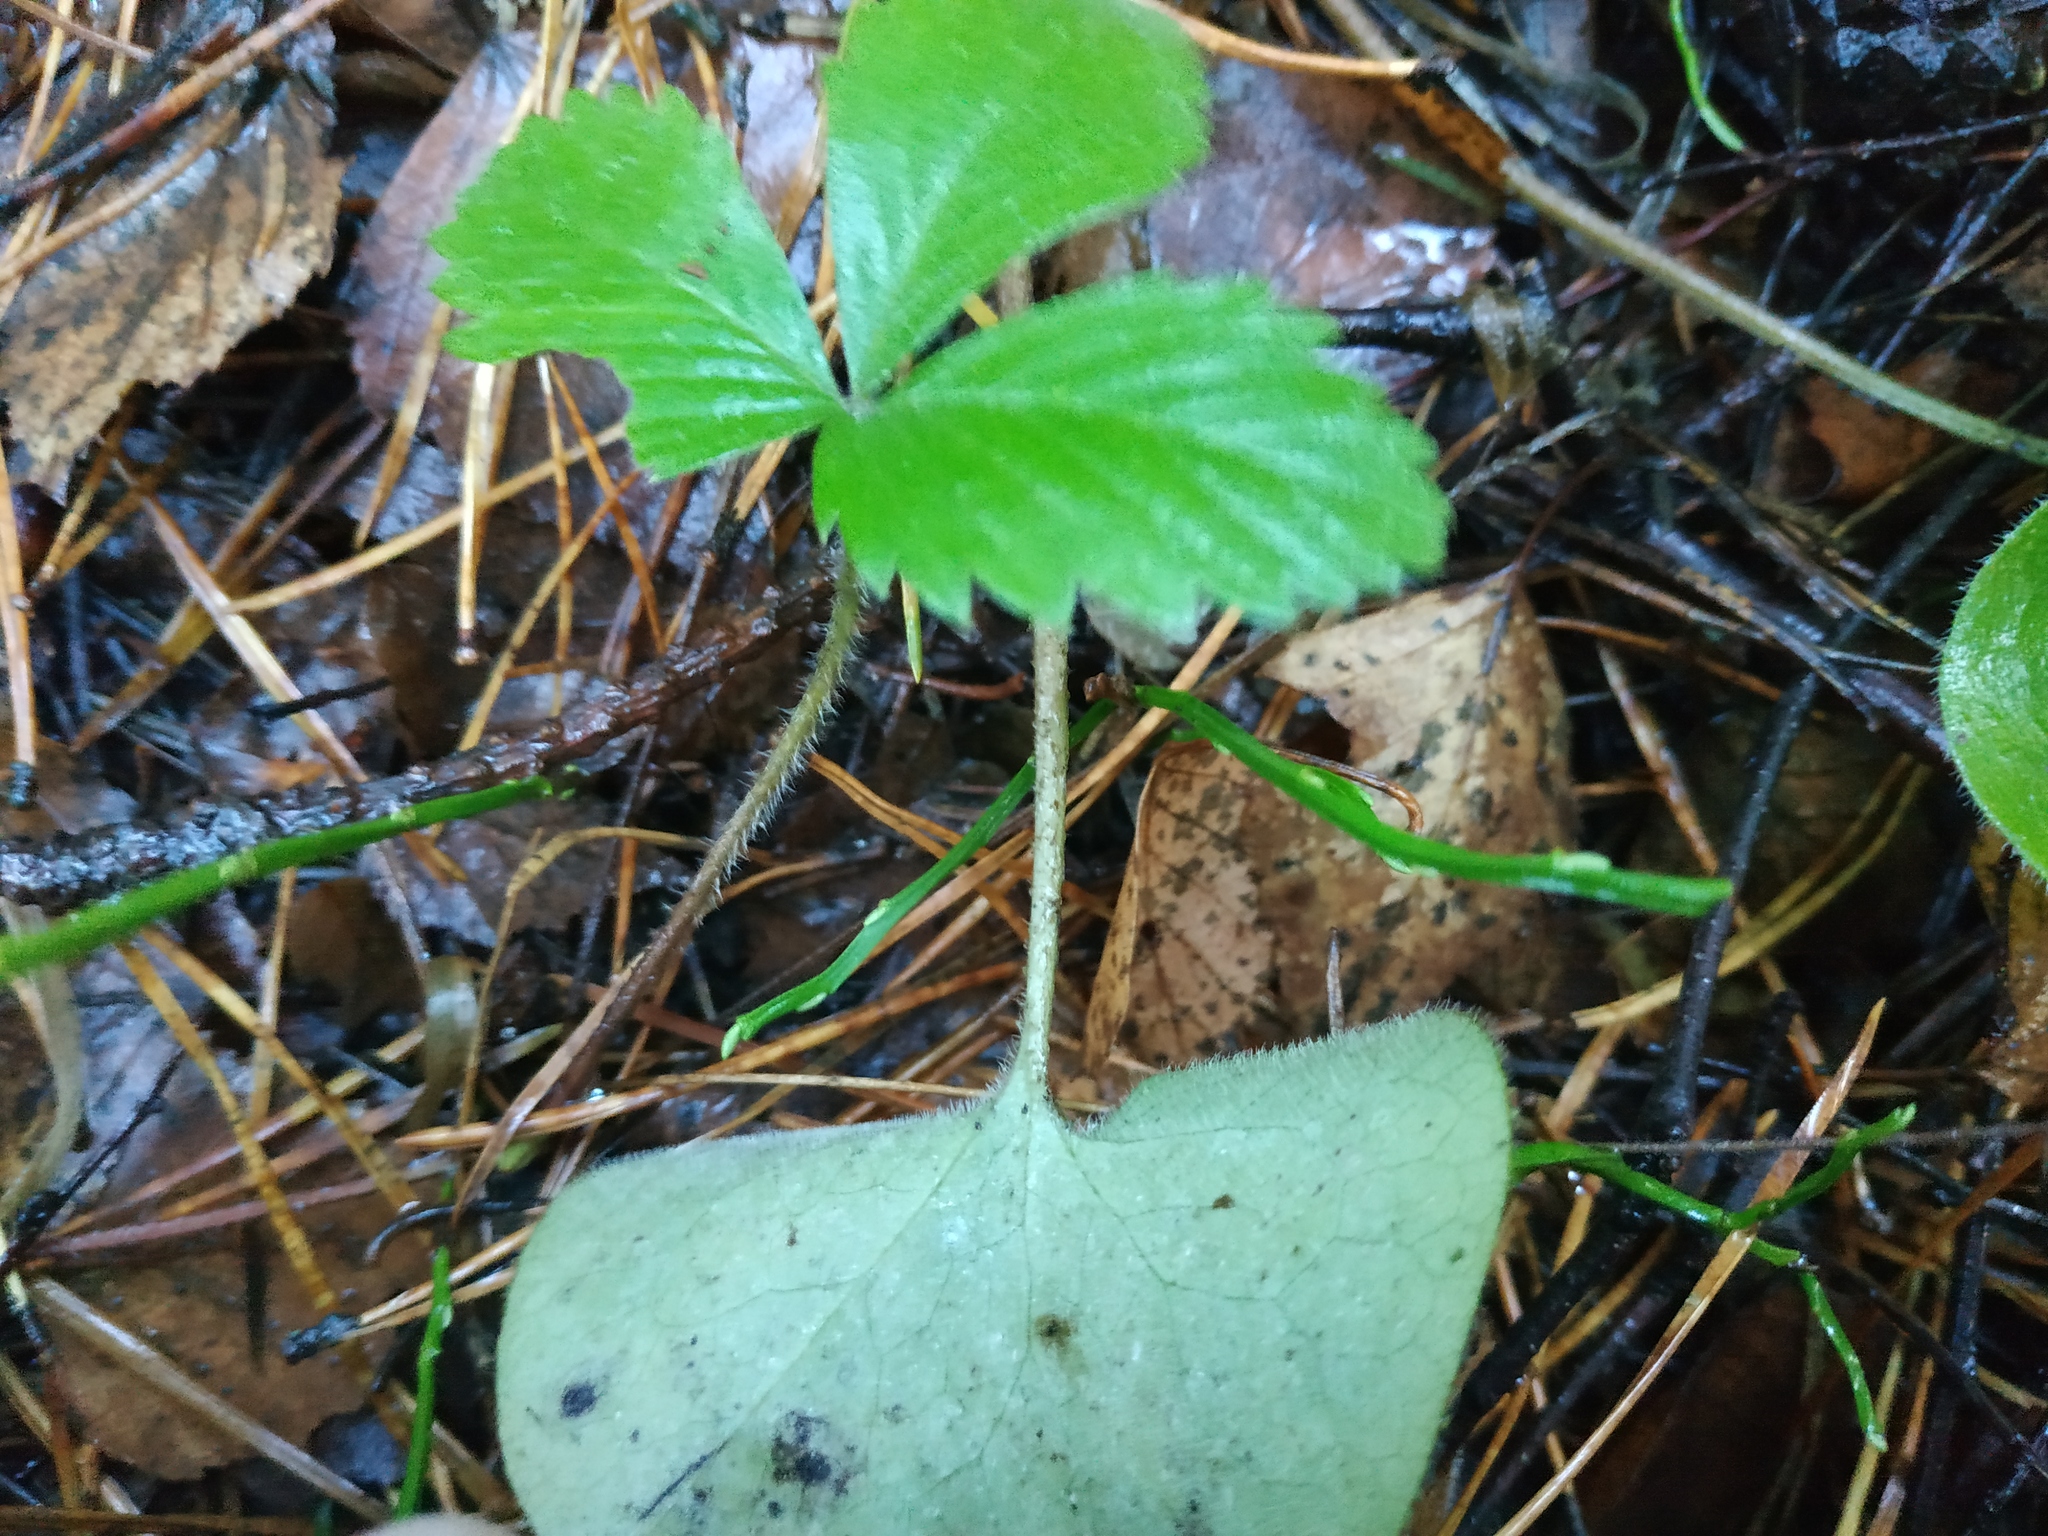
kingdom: Plantae
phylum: Tracheophyta
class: Magnoliopsida
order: Rosales
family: Rosaceae
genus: Fragaria
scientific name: Fragaria vesca
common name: Wild strawberry
